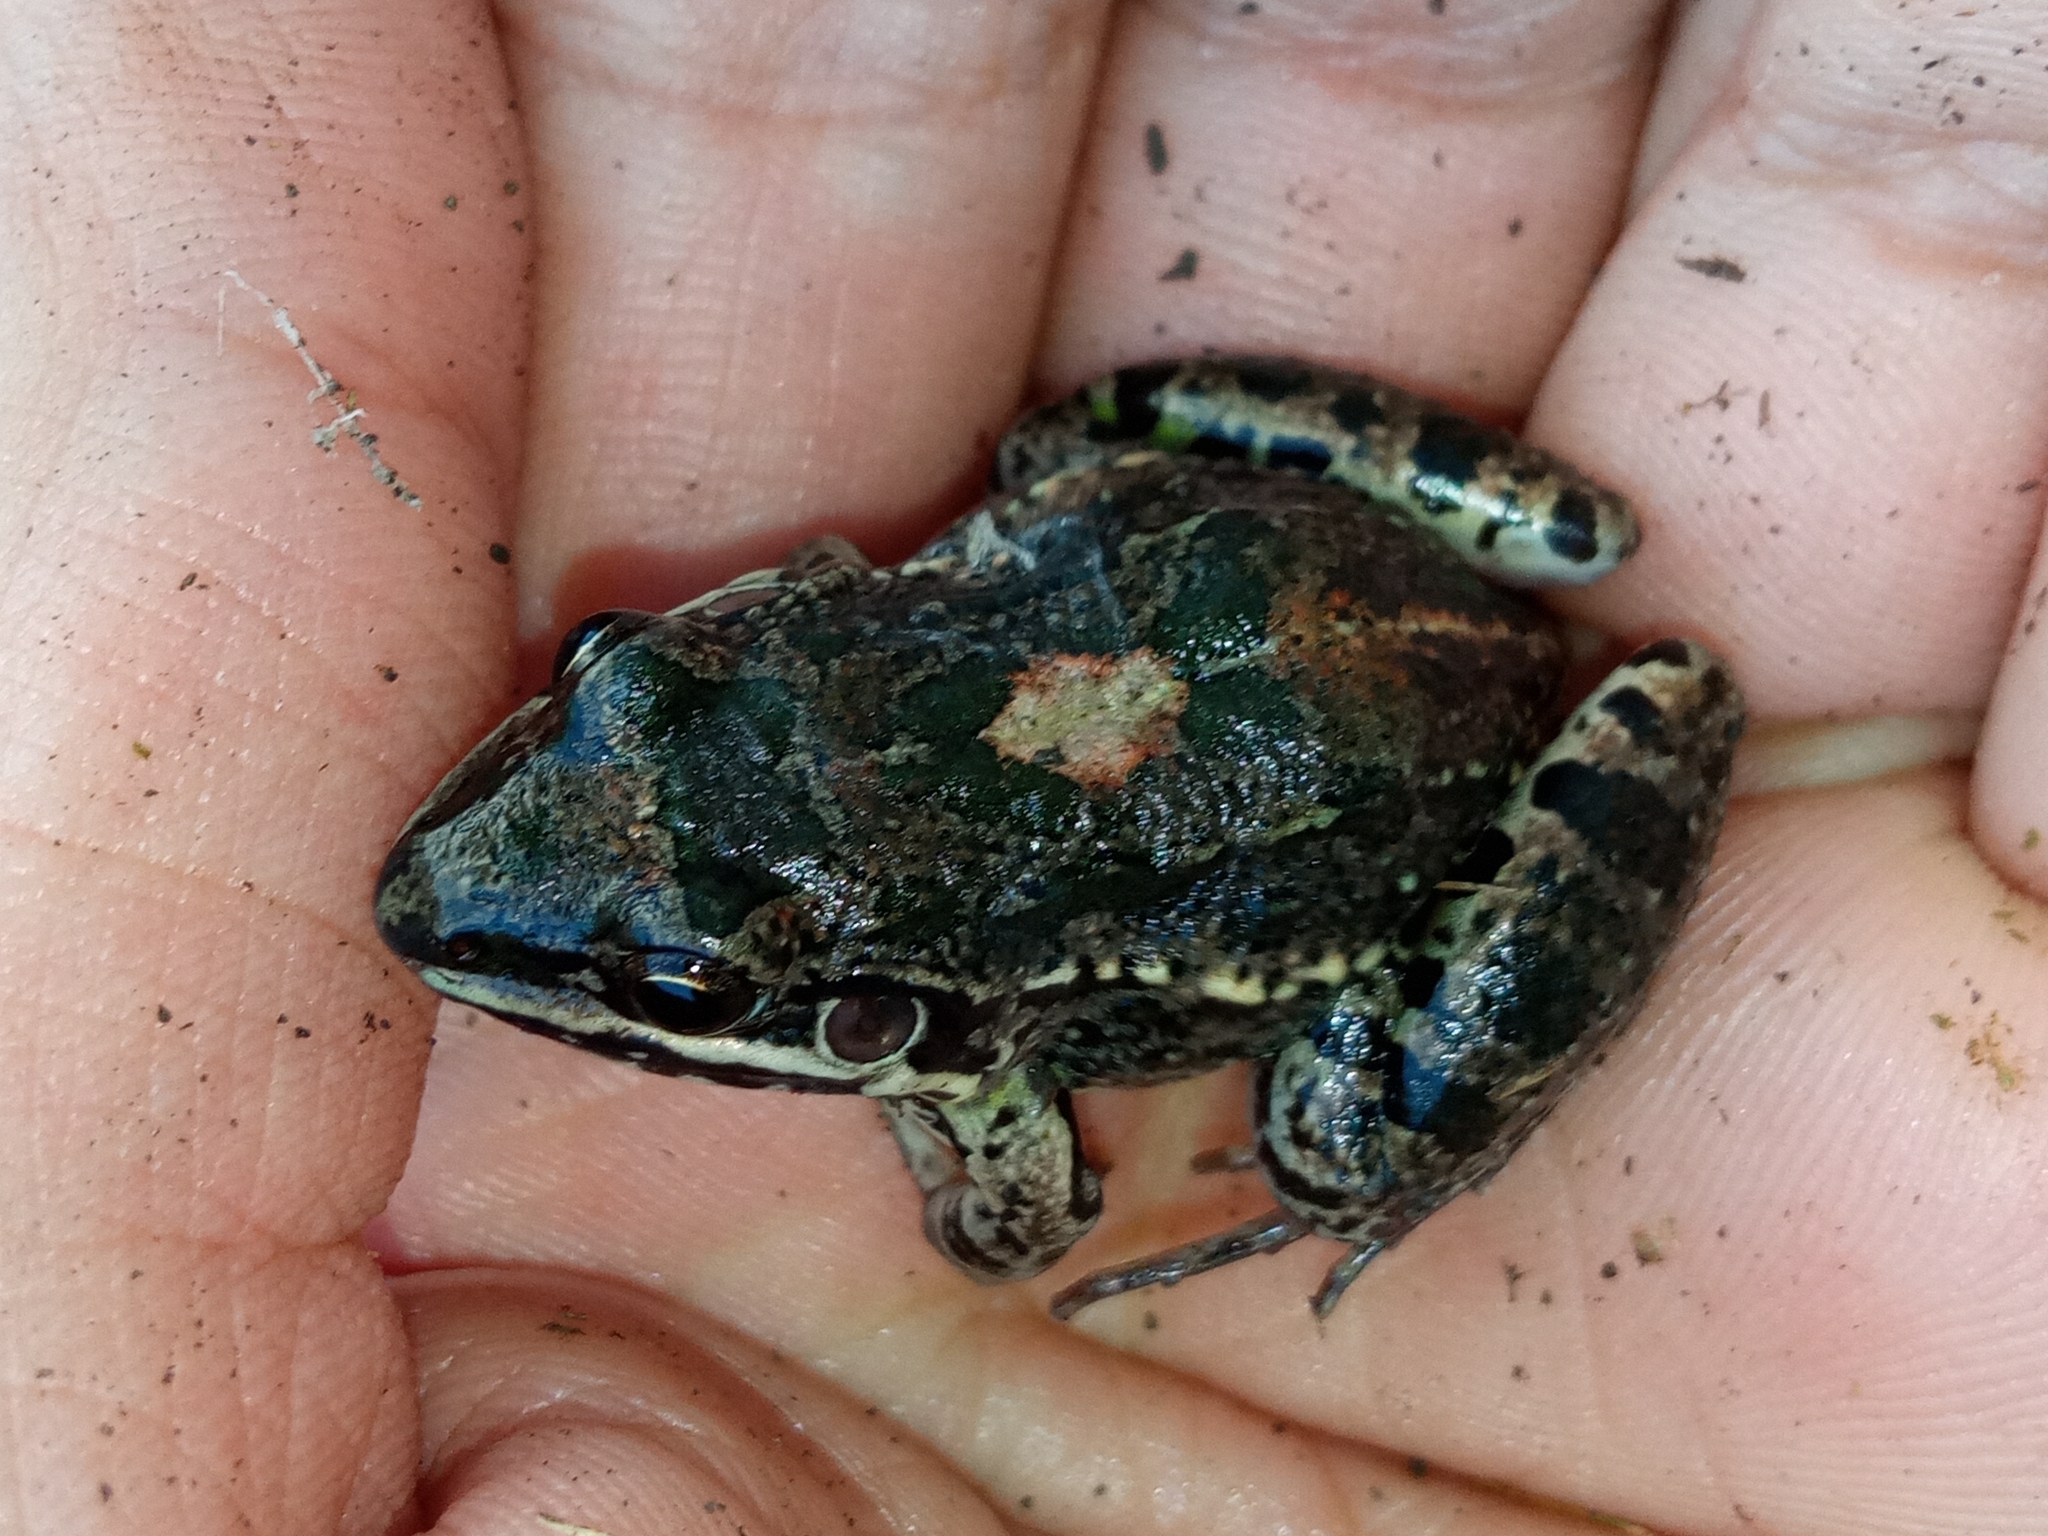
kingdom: Animalia
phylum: Chordata
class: Amphibia
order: Anura
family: Leptodactylidae
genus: Leptodactylus
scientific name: Leptodactylus latinasus
